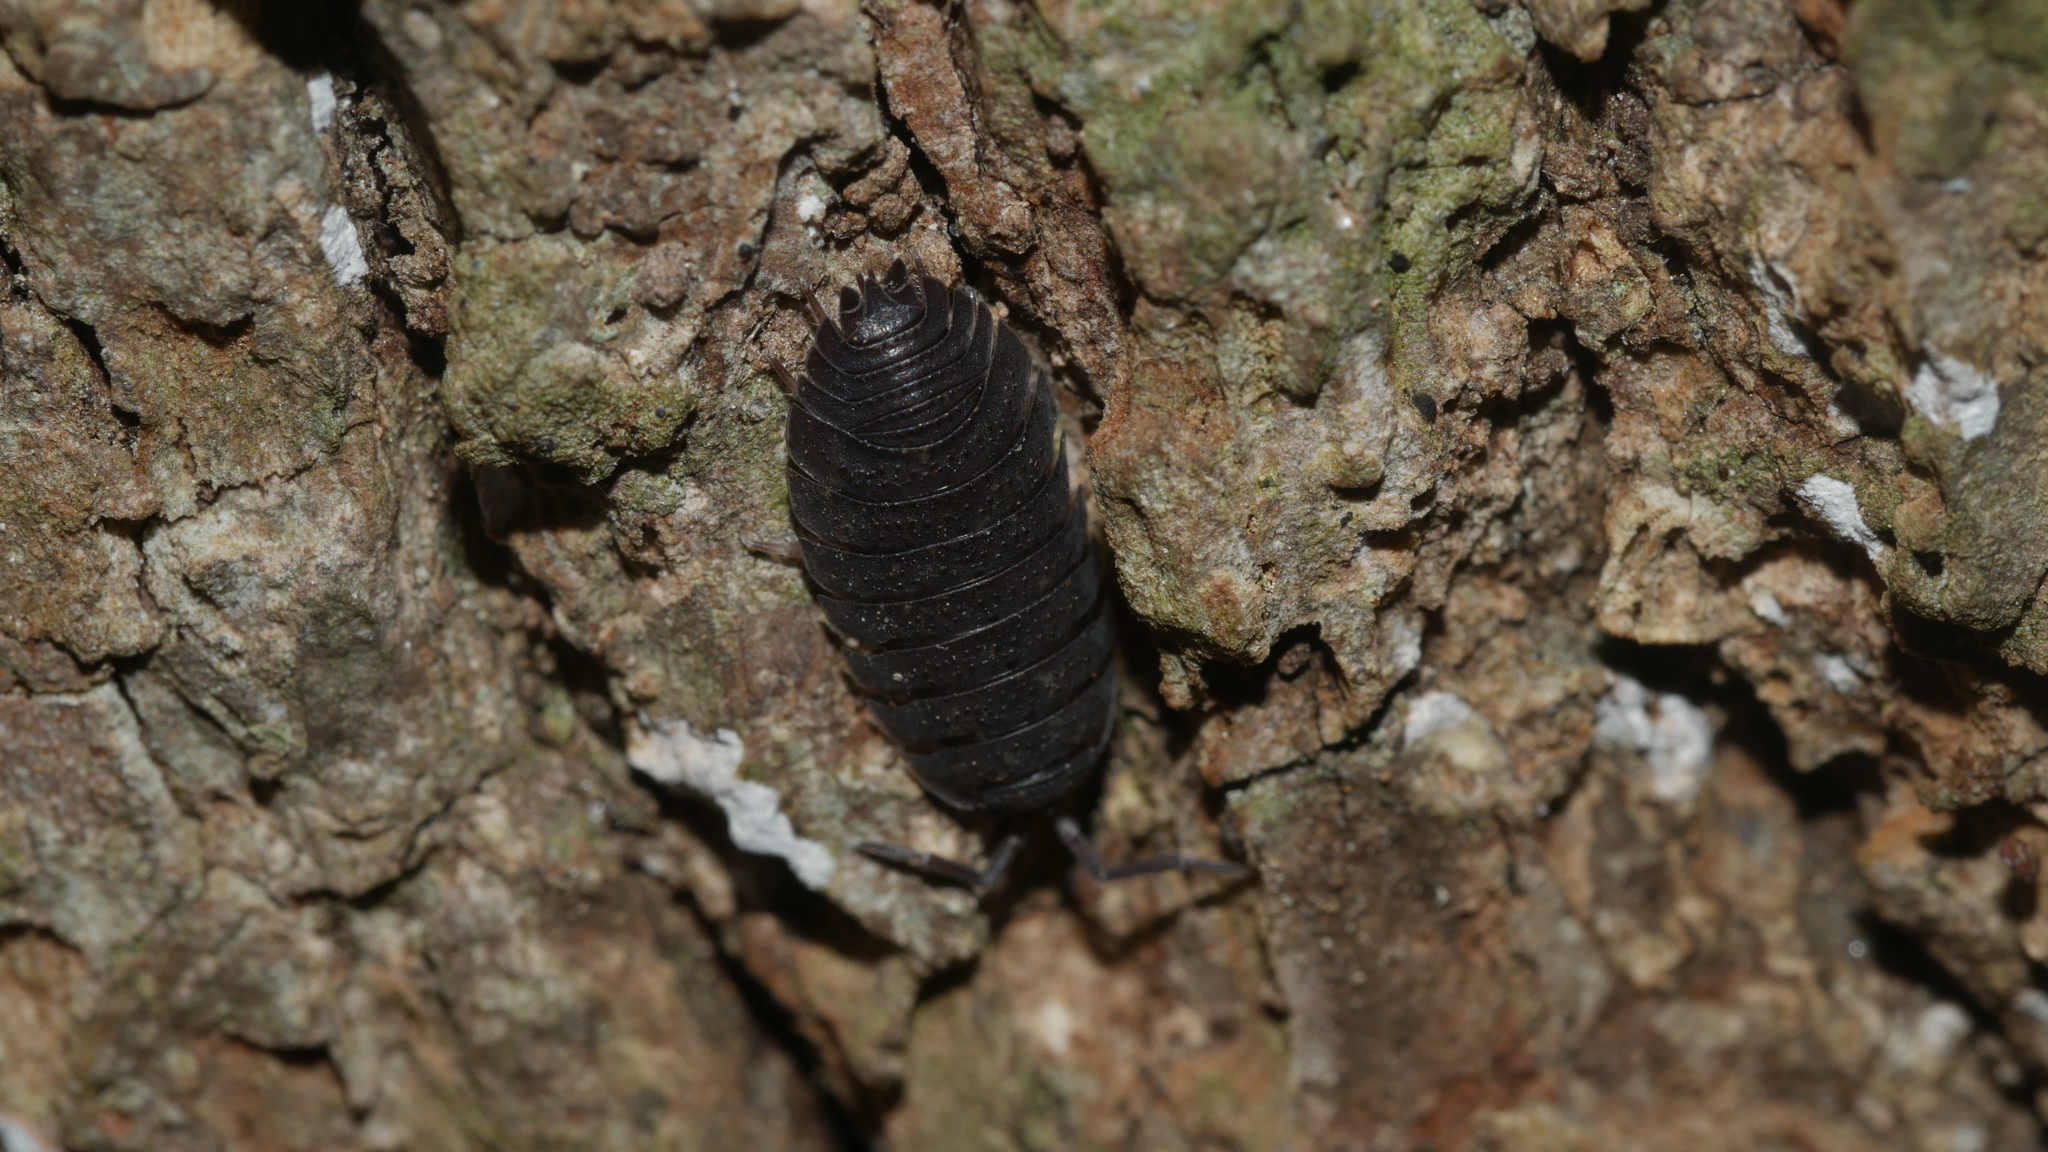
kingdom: Animalia
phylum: Arthropoda
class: Malacostraca
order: Isopoda
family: Porcellionidae
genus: Porcellio
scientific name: Porcellio scaber
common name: Common rough woodlouse
